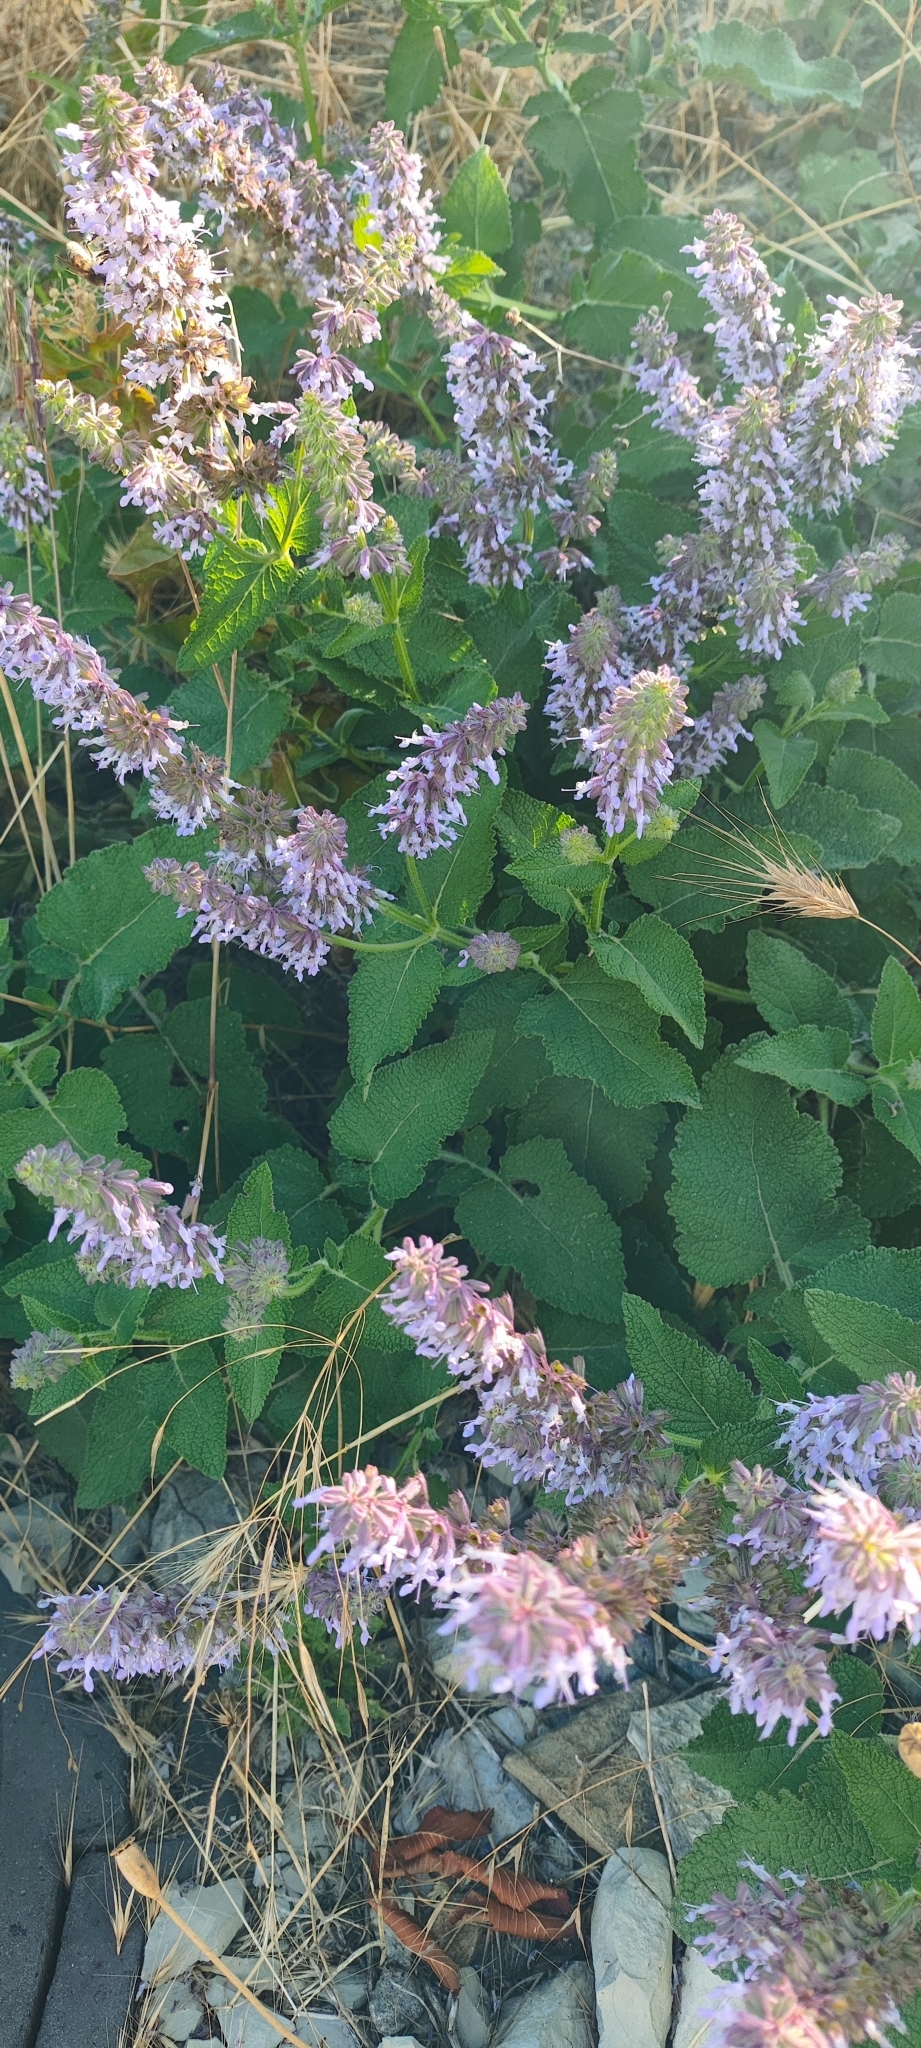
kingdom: Plantae
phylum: Tracheophyta
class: Magnoliopsida
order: Lamiales
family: Lamiaceae
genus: Salvia
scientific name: Salvia verticillata
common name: Whorled clary
